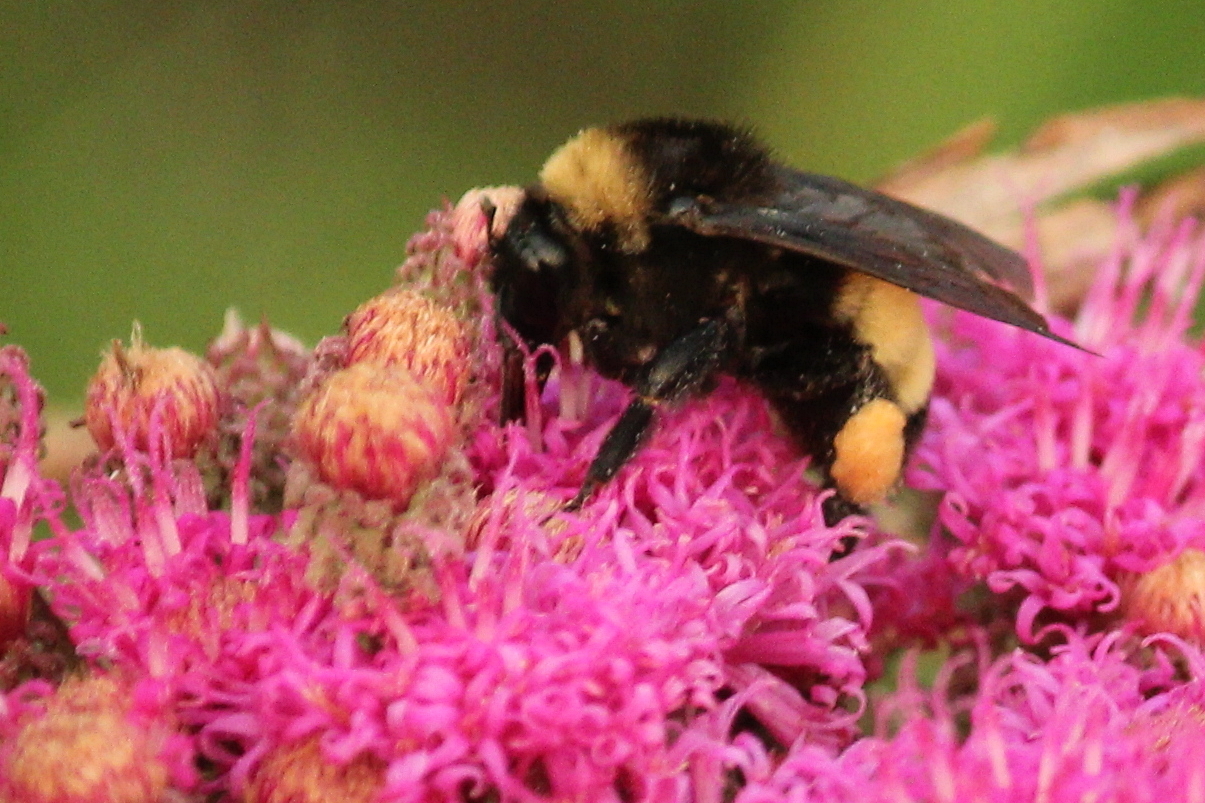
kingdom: Animalia
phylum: Arthropoda
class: Insecta
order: Hymenoptera
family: Apidae
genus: Bombus
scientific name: Bombus pensylvanicus
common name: Bumble bee
